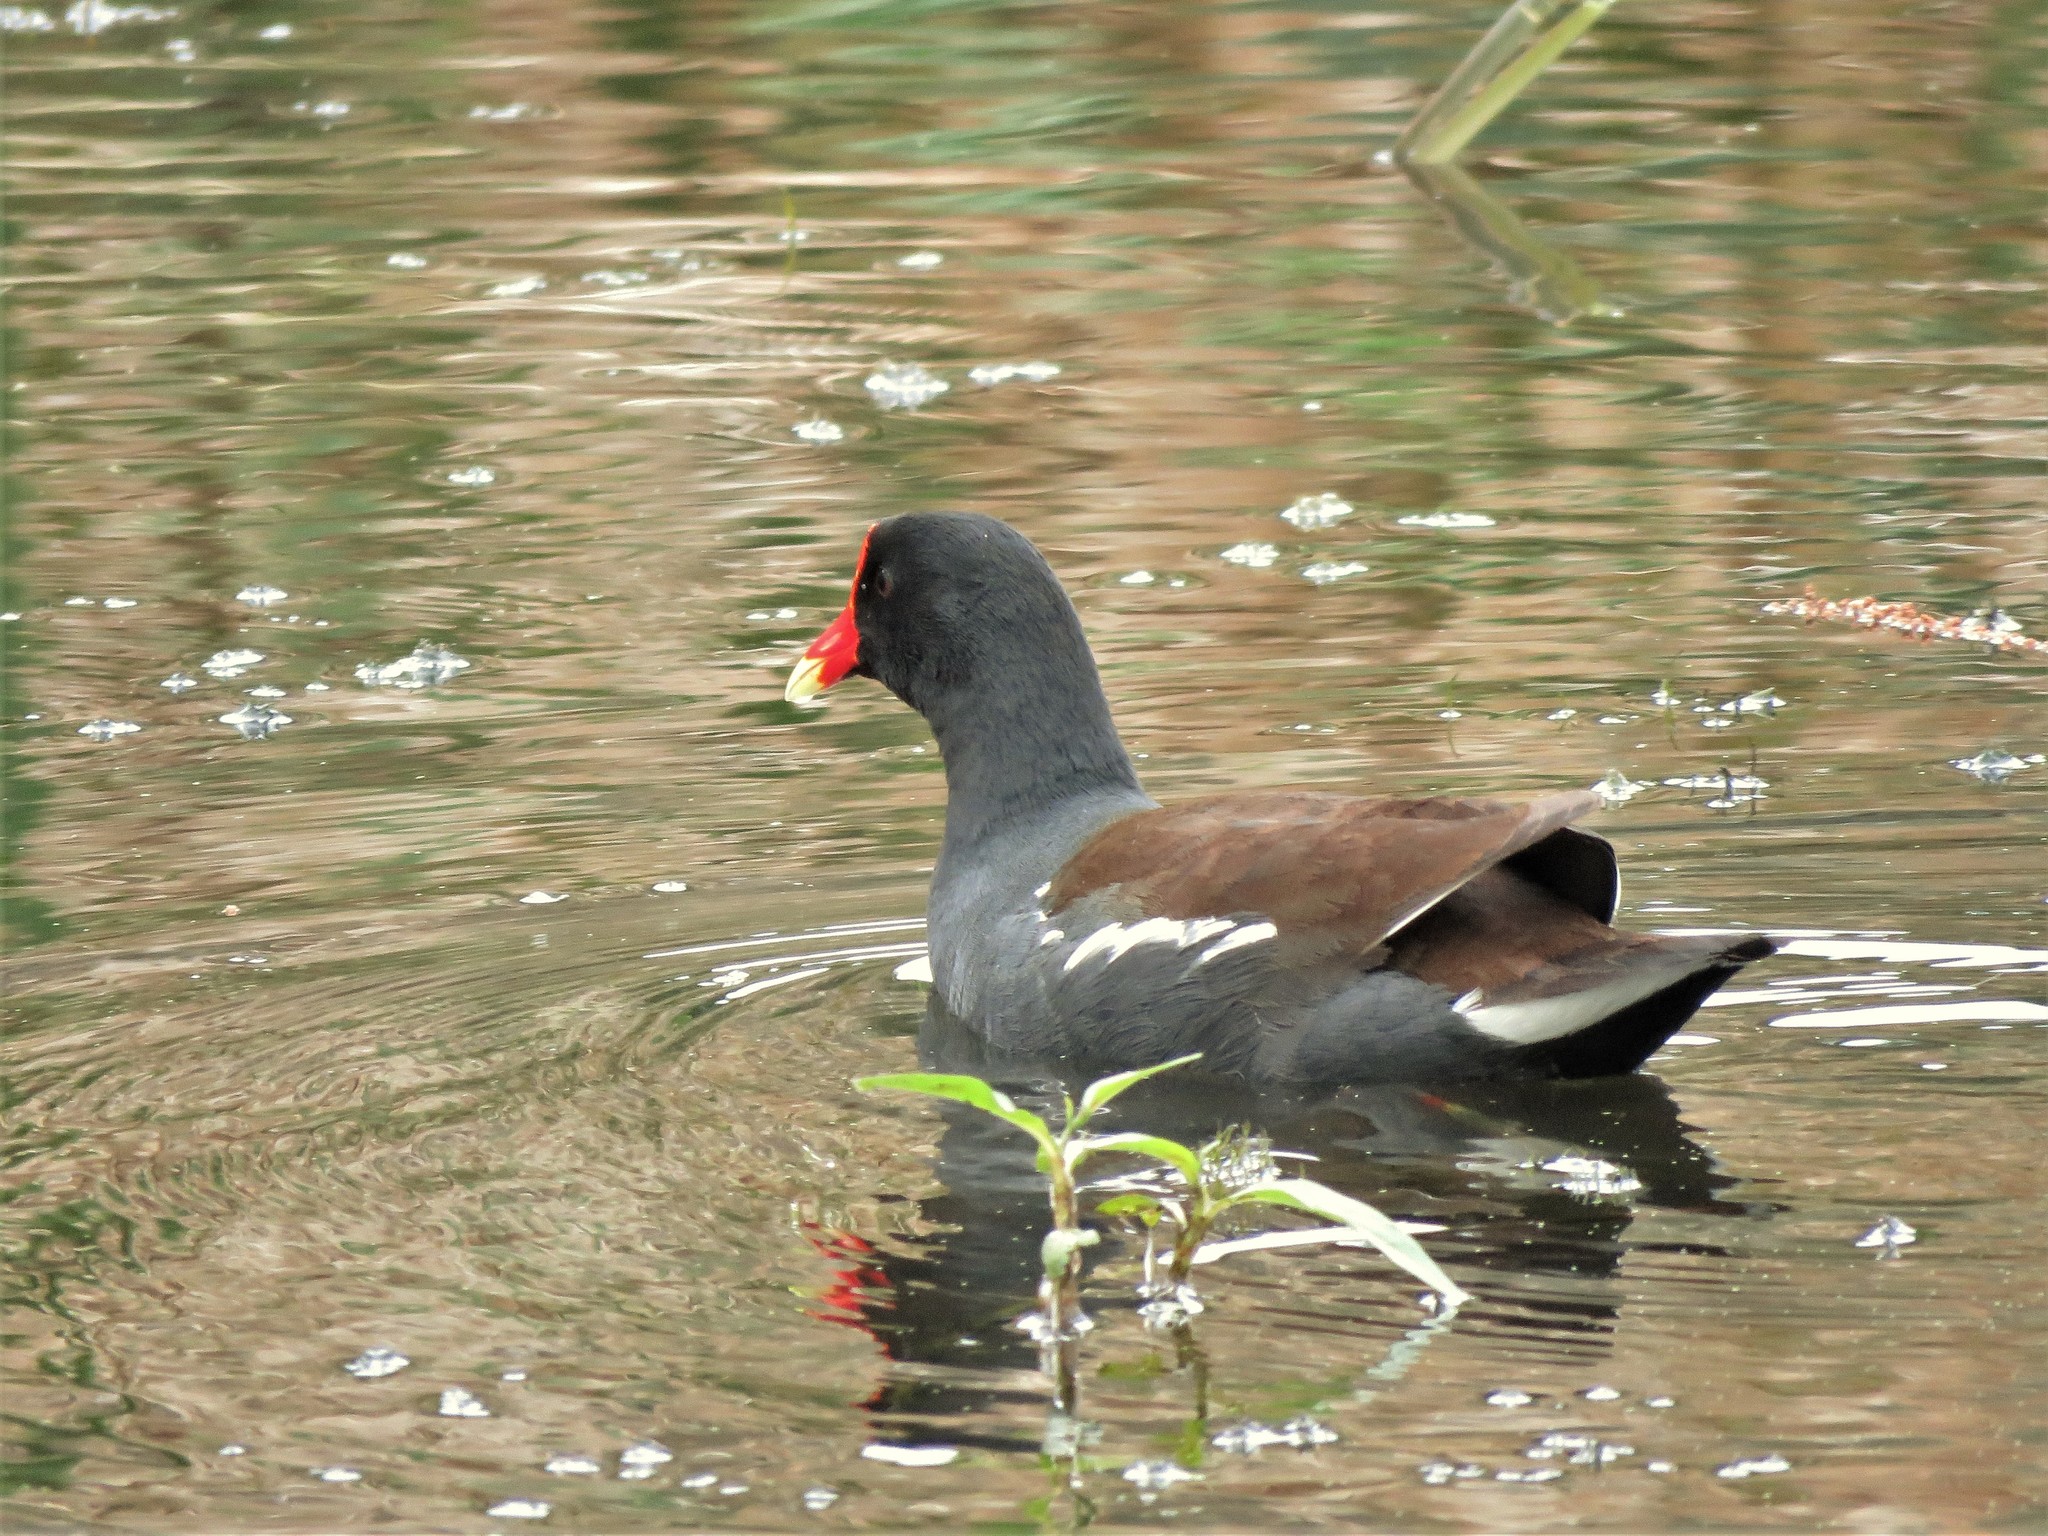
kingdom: Animalia
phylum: Chordata
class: Aves
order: Gruiformes
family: Rallidae
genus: Gallinula
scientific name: Gallinula chloropus
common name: Common moorhen
